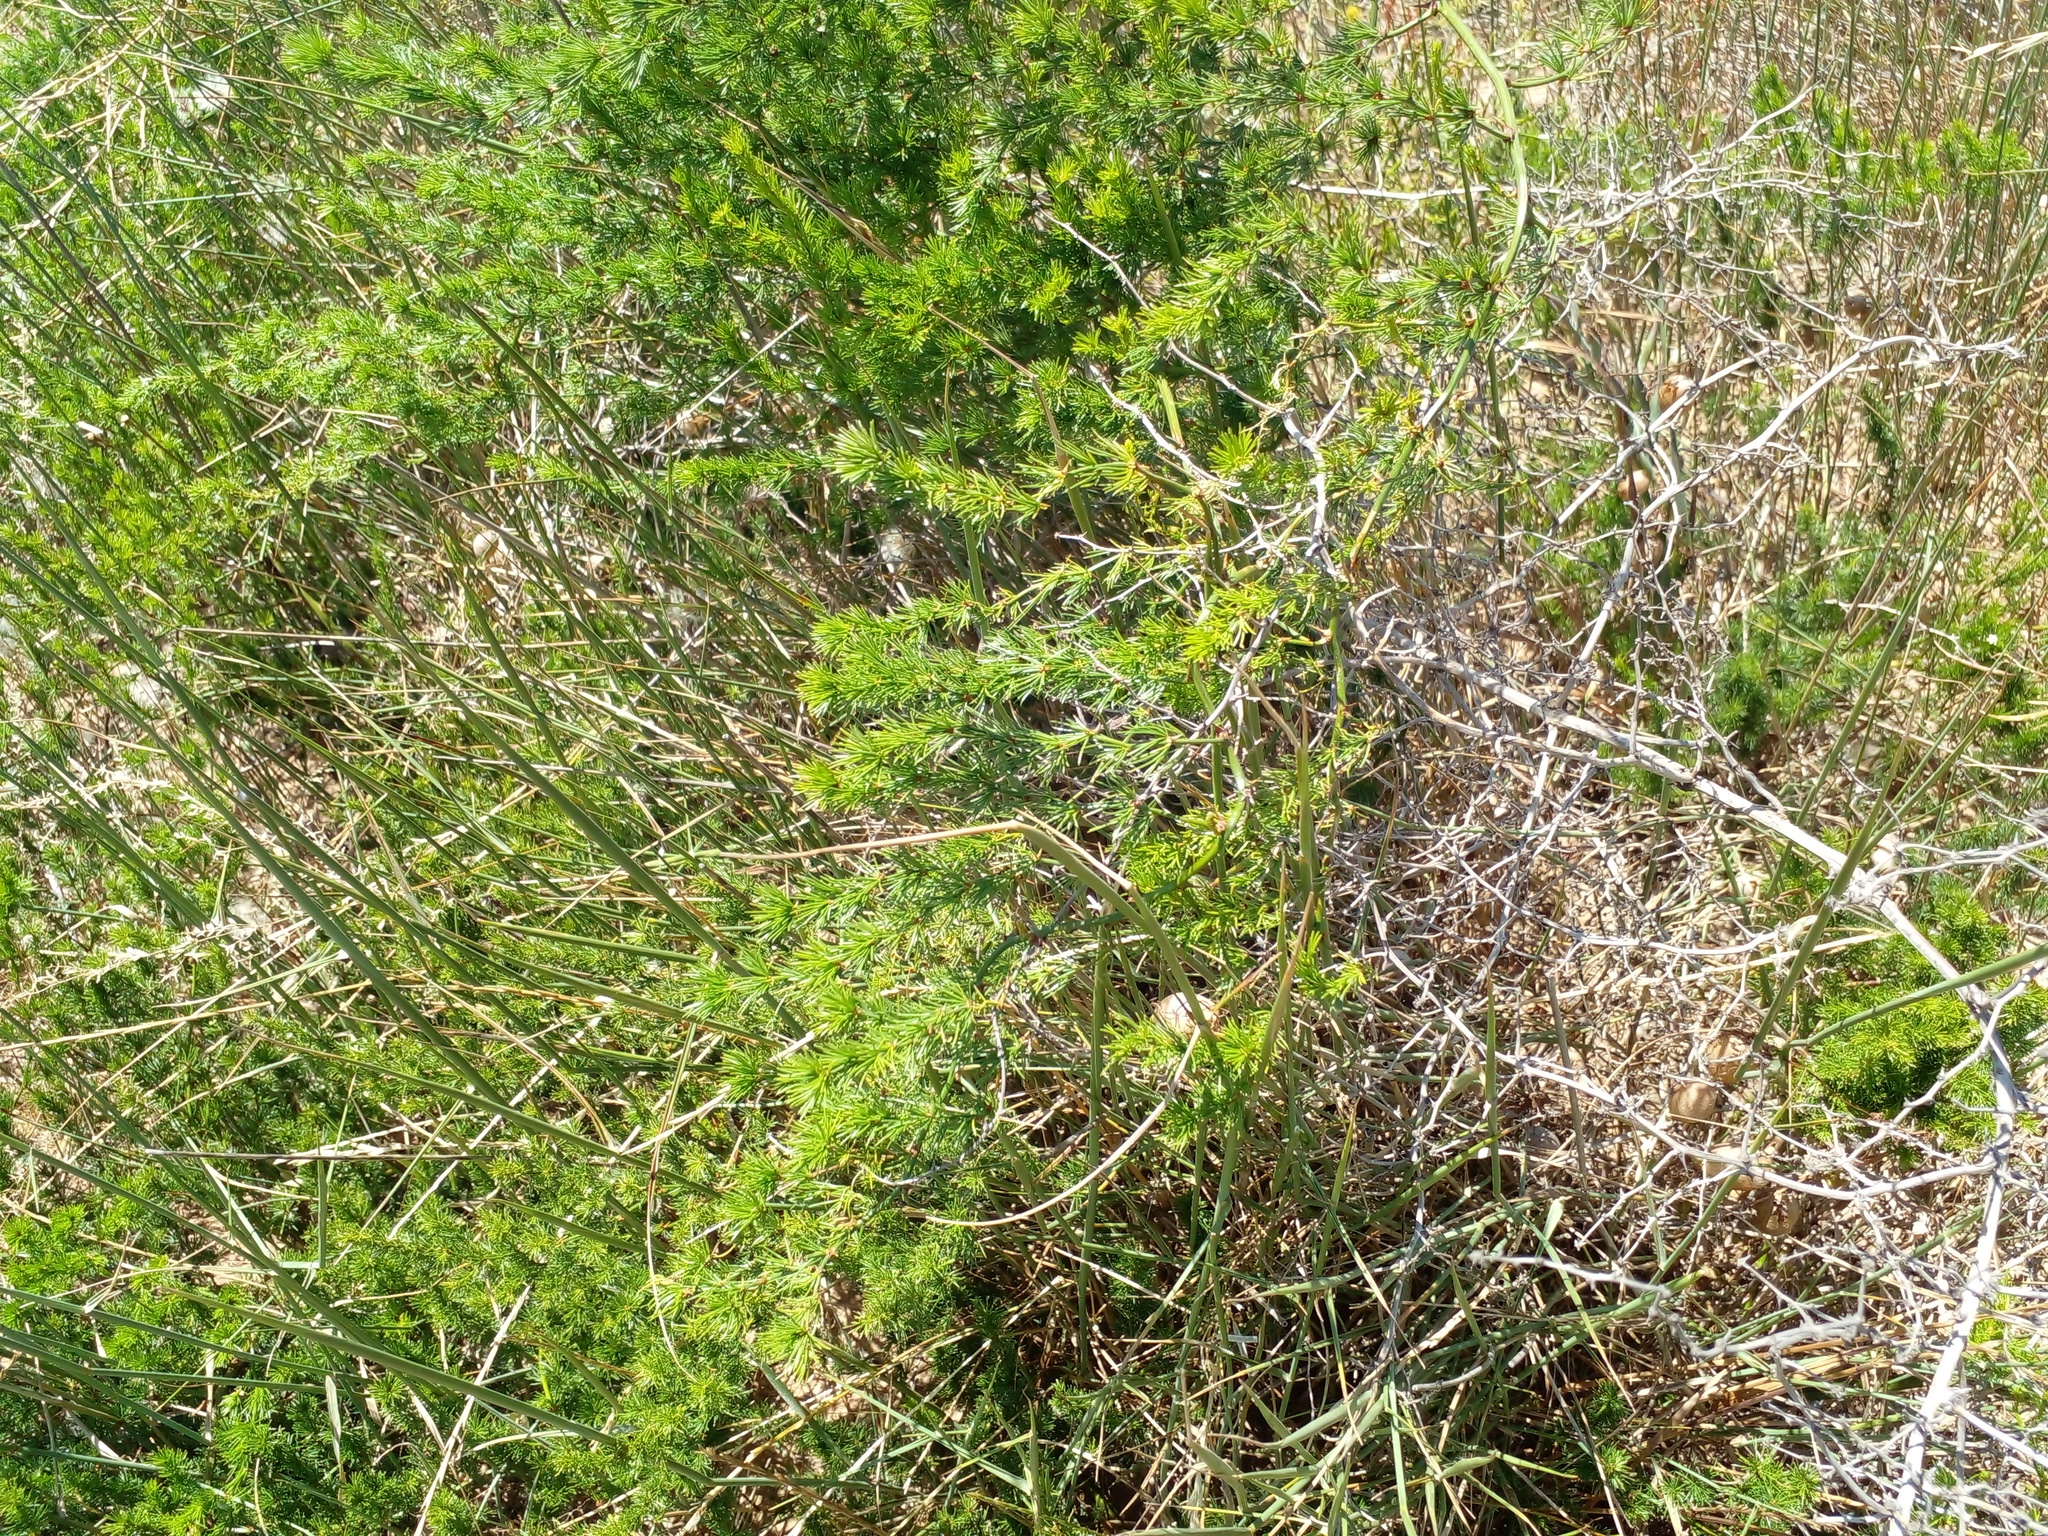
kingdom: Plantae
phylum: Tracheophyta
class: Liliopsida
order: Asparagales
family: Asparagaceae
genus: Asparagus
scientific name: Asparagus africanus
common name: Asparagus-fern
